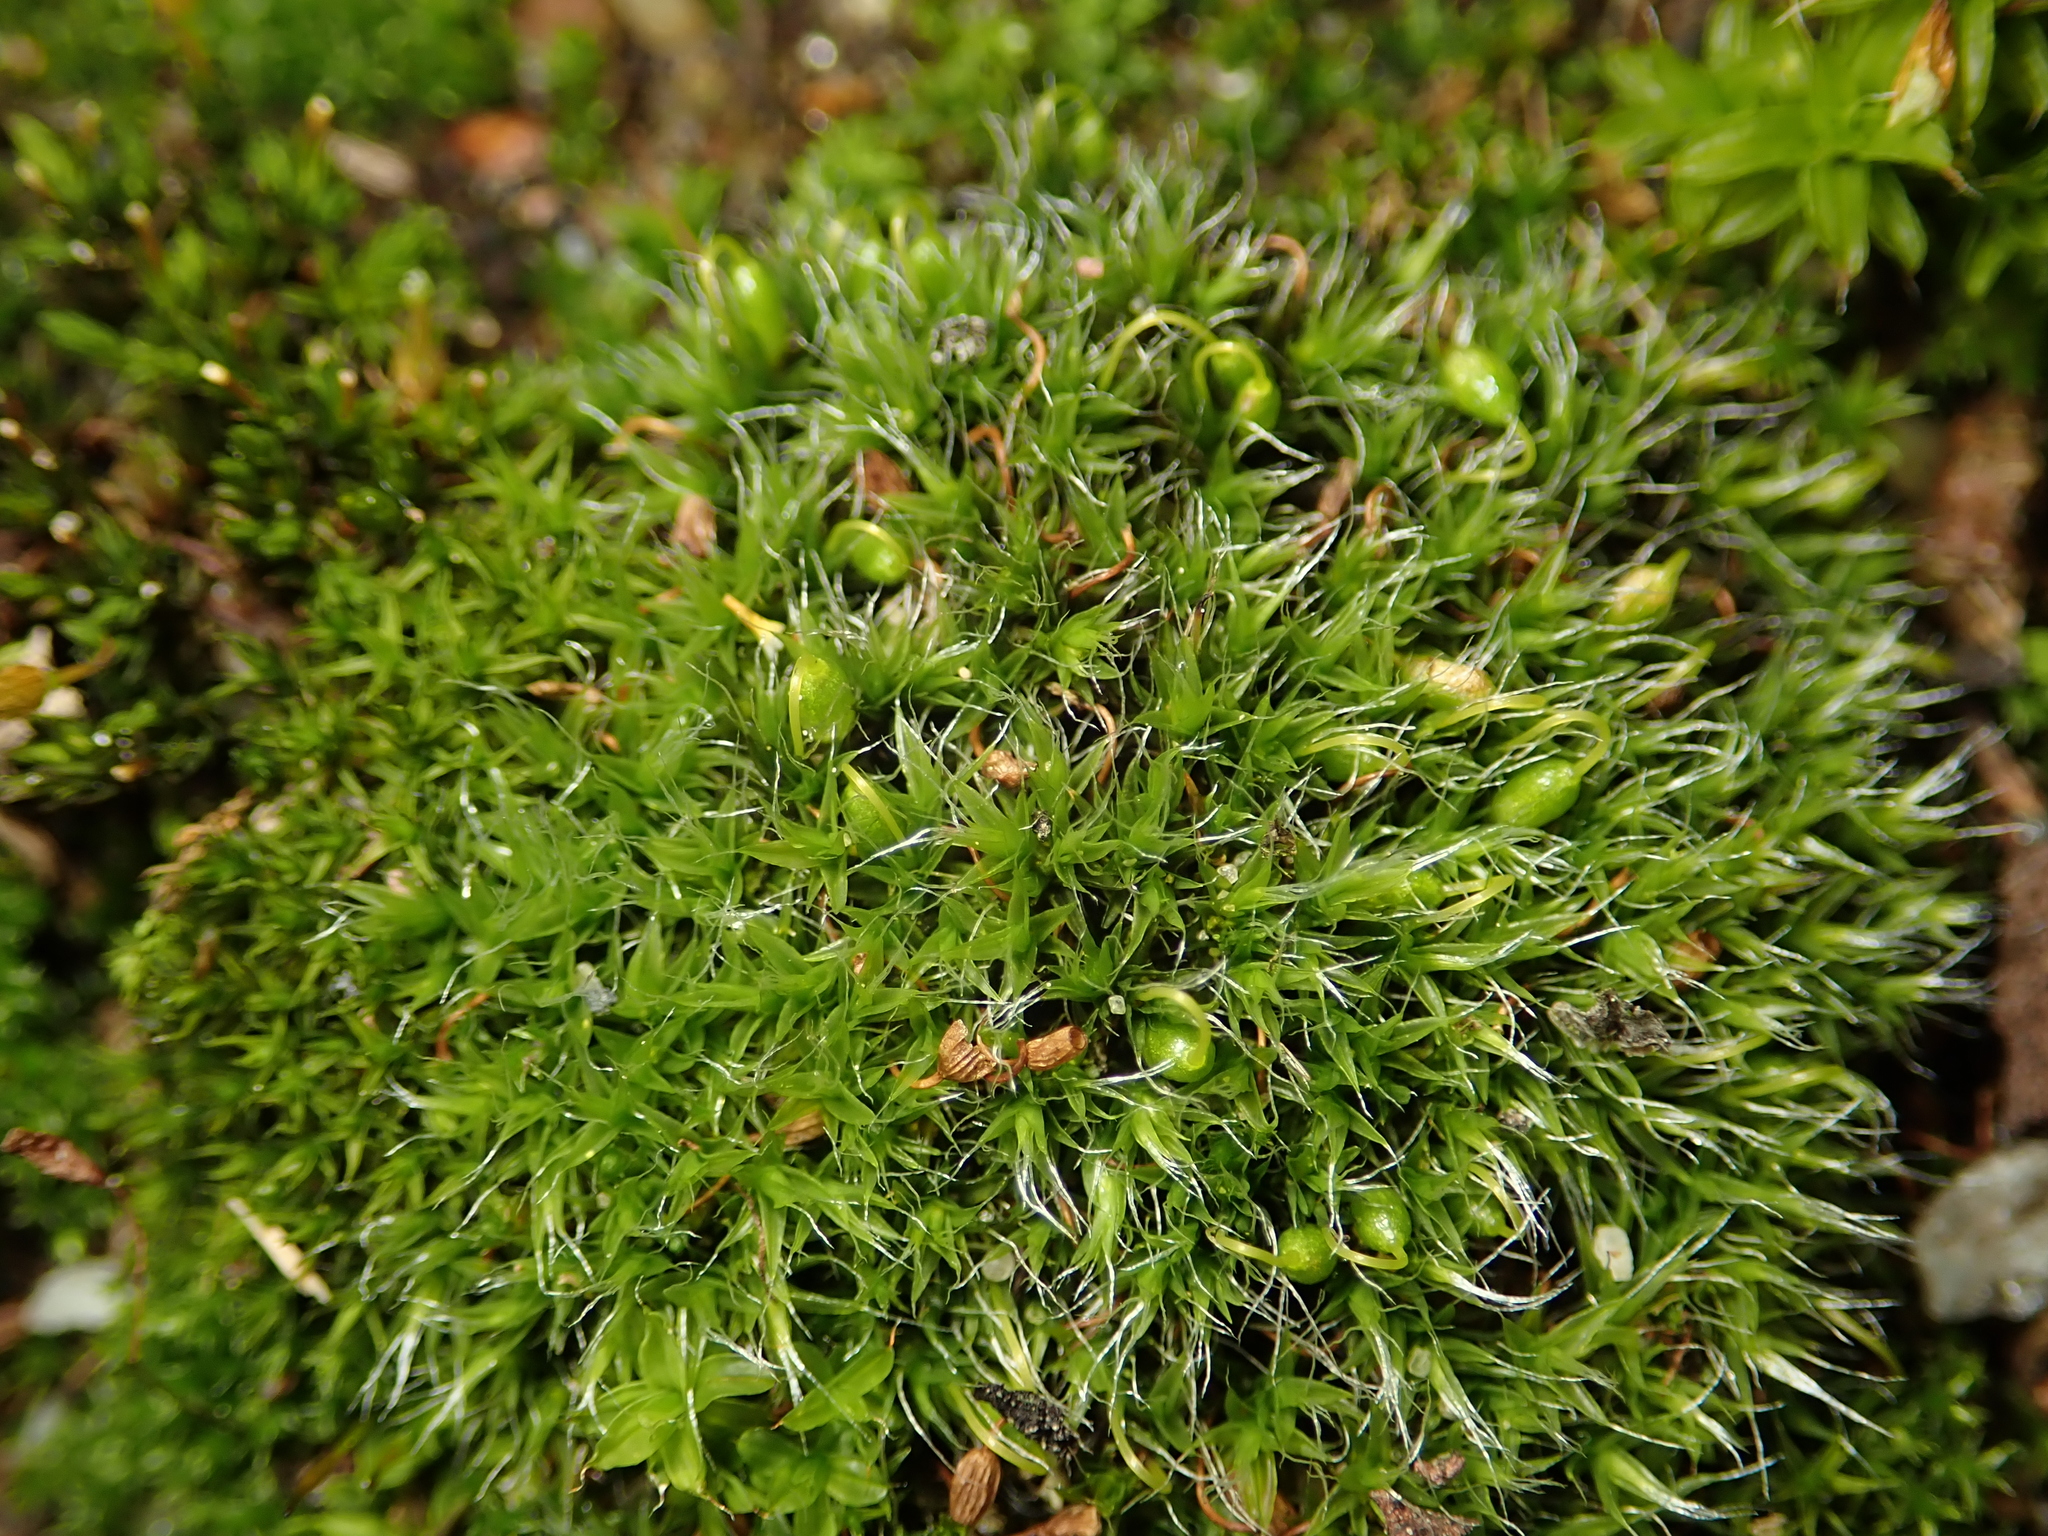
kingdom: Plantae
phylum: Bryophyta
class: Bryopsida
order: Grimmiales
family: Grimmiaceae
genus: Grimmia
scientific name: Grimmia pulvinata
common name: Grey-cushioned grimmia
